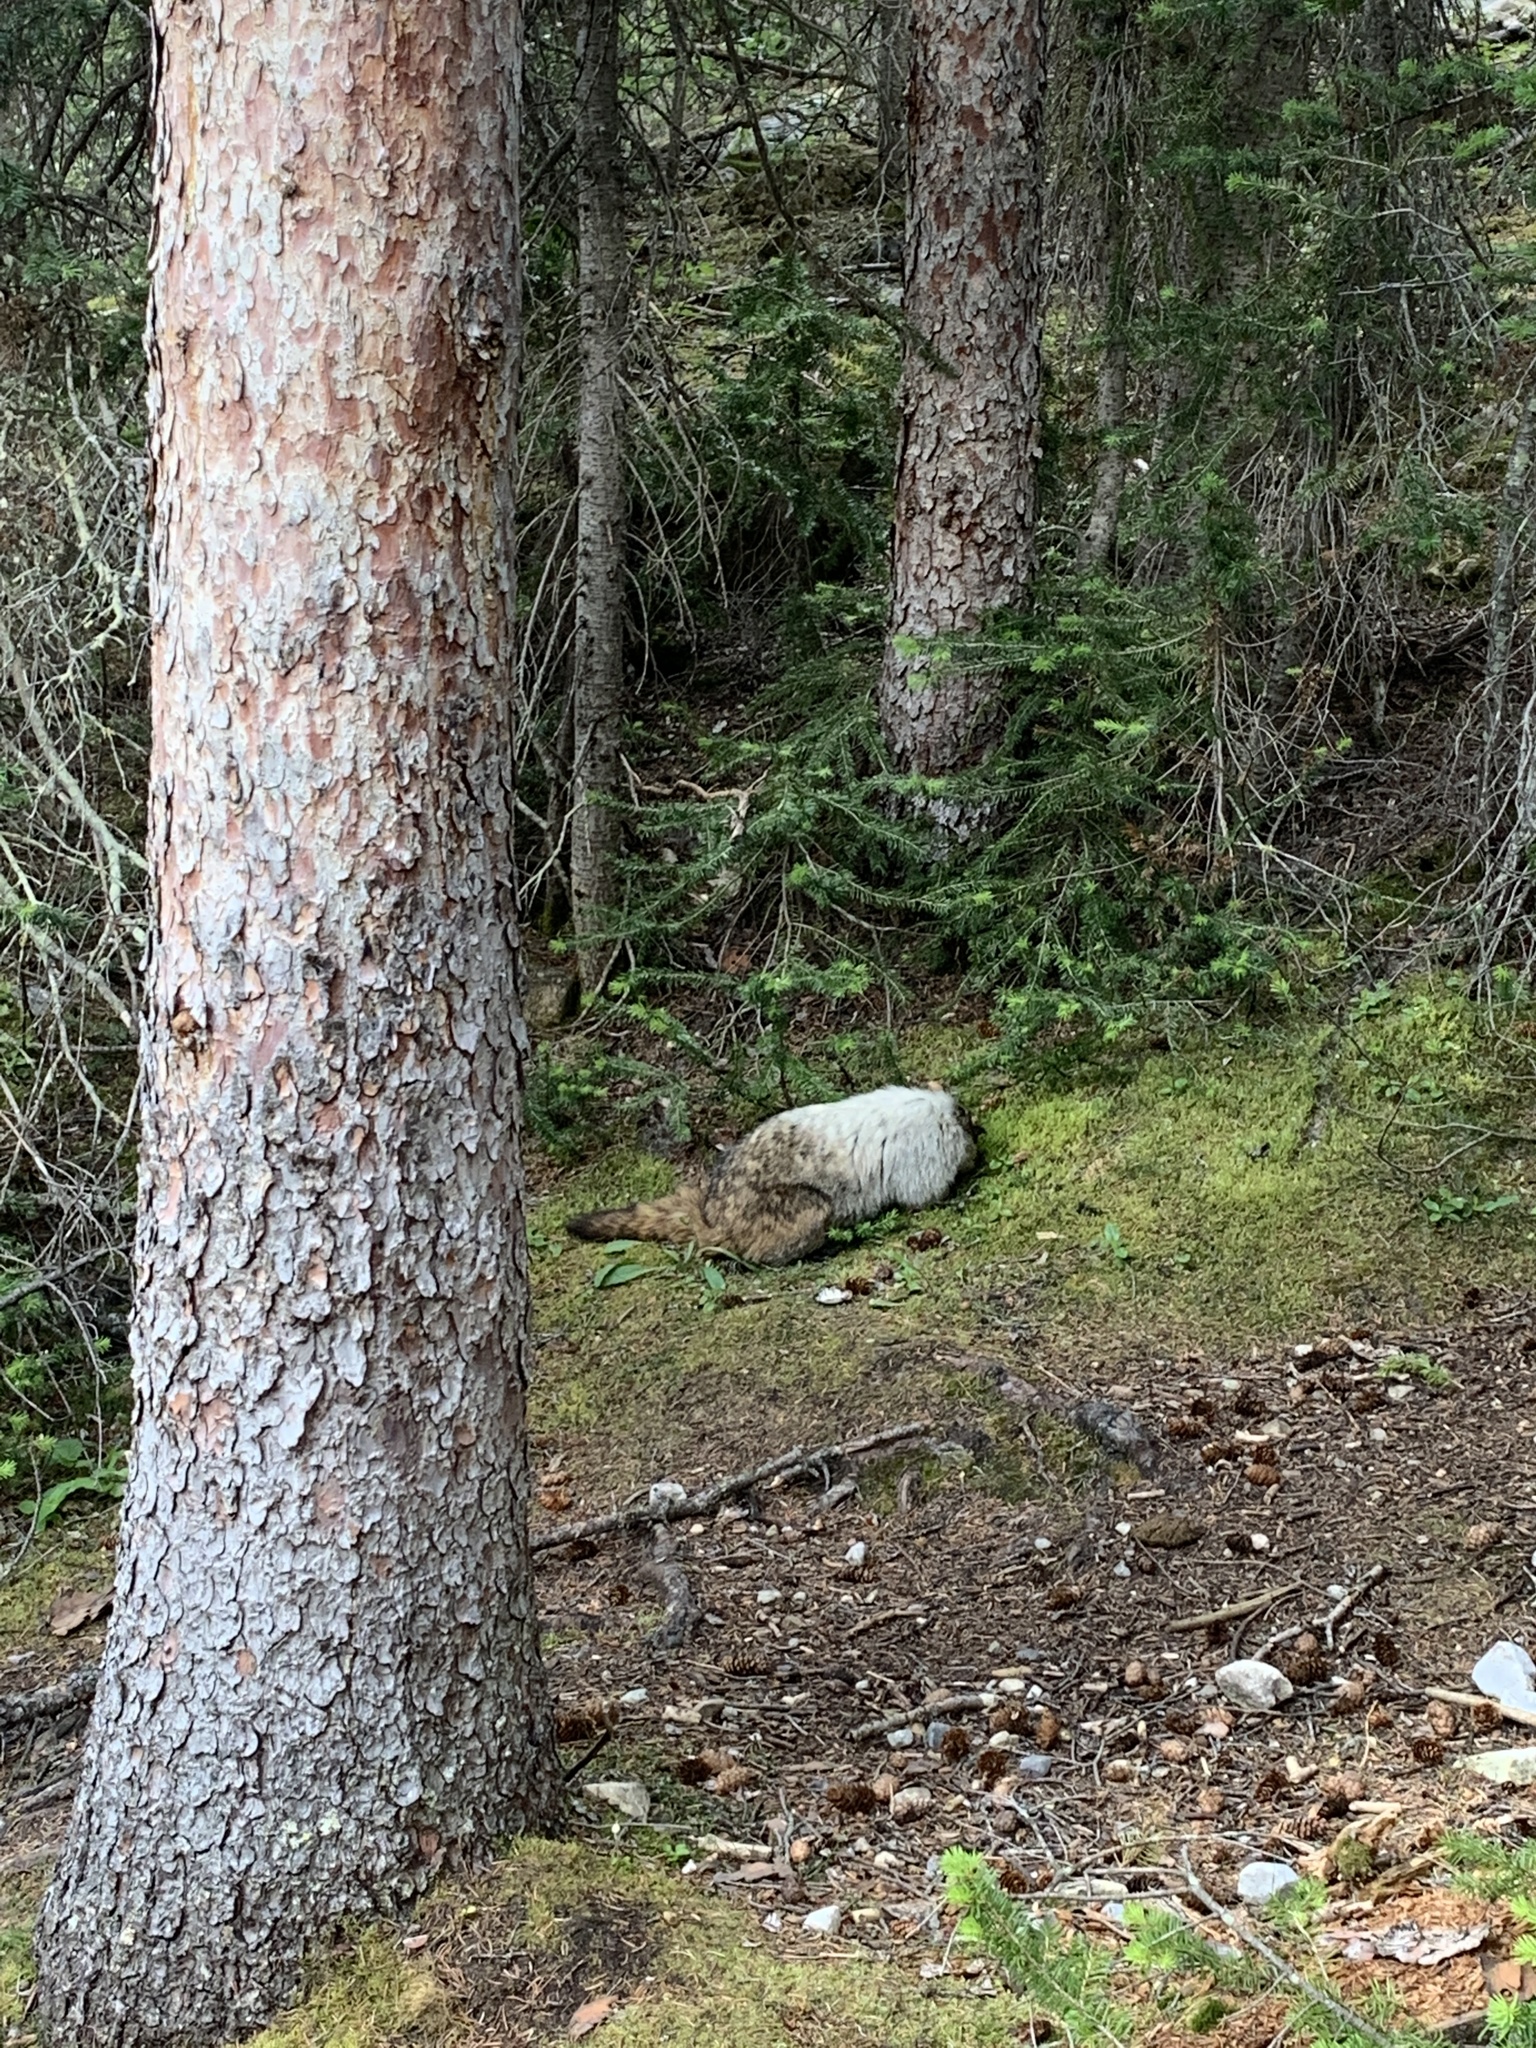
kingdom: Animalia
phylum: Chordata
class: Mammalia
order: Rodentia
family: Sciuridae
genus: Marmota
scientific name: Marmota caligata
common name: Hoary marmot
